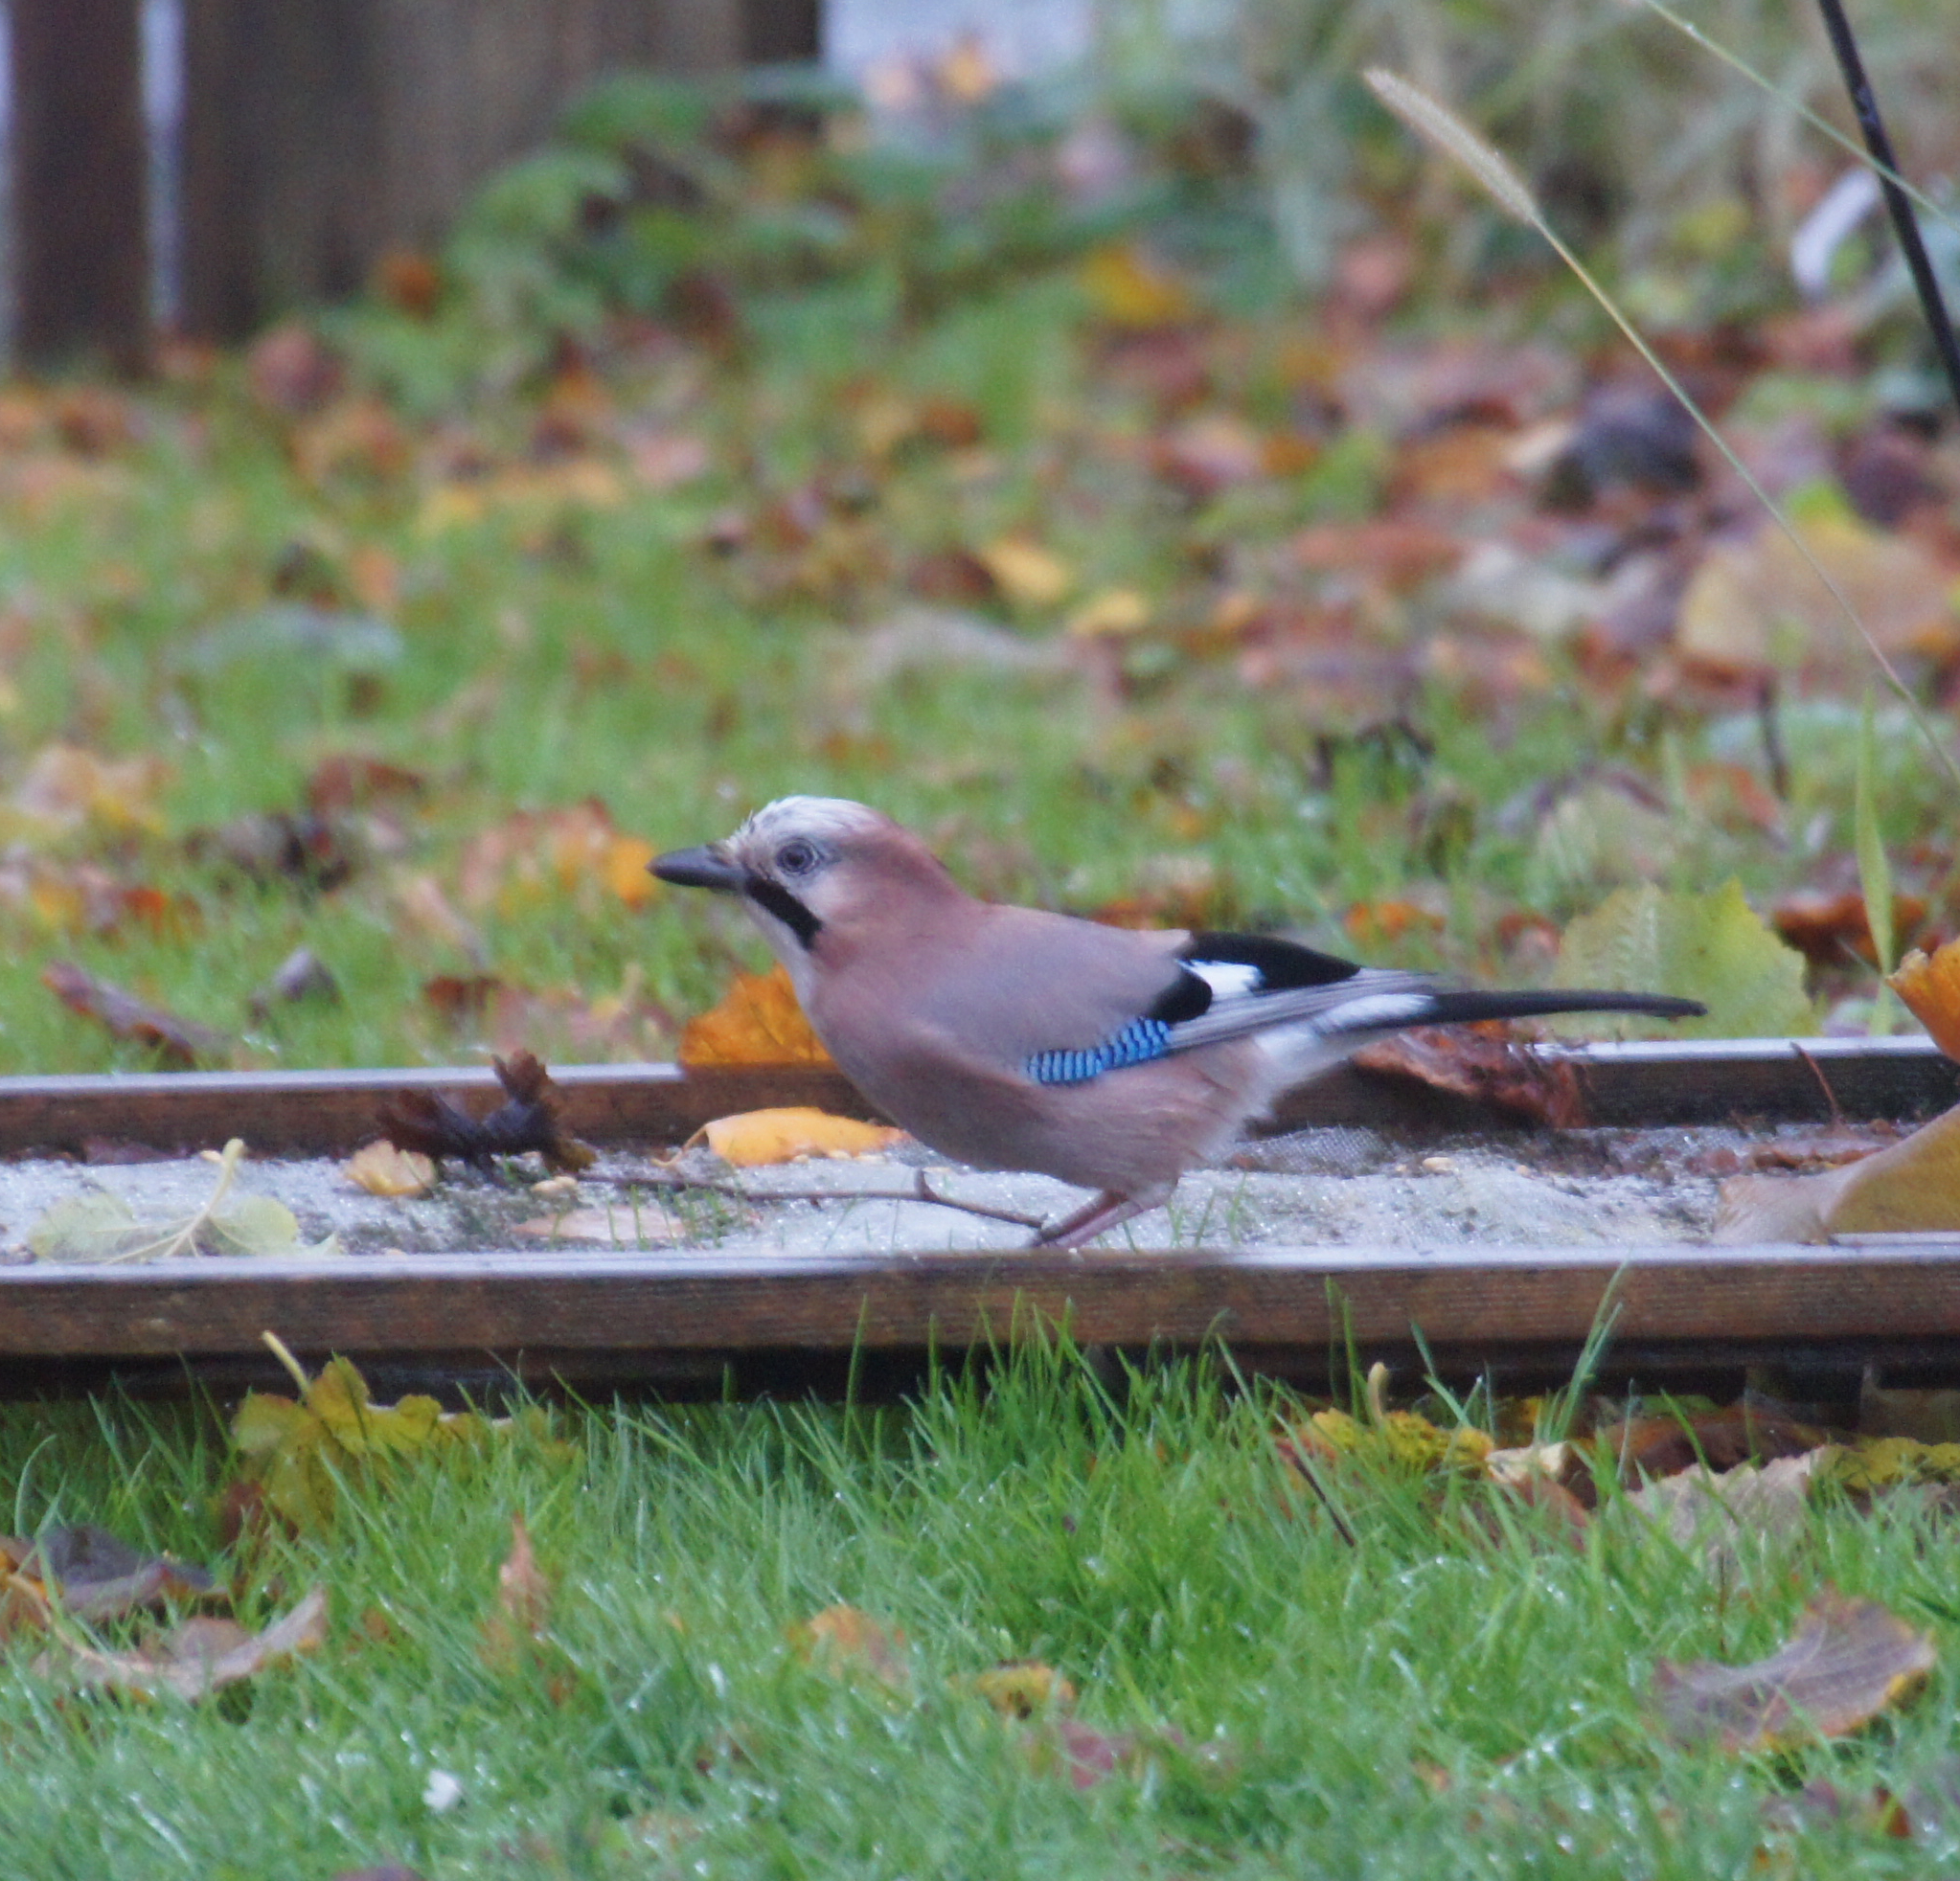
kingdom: Animalia
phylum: Chordata
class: Aves
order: Passeriformes
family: Corvidae
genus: Garrulus
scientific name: Garrulus glandarius
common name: Eurasian jay
